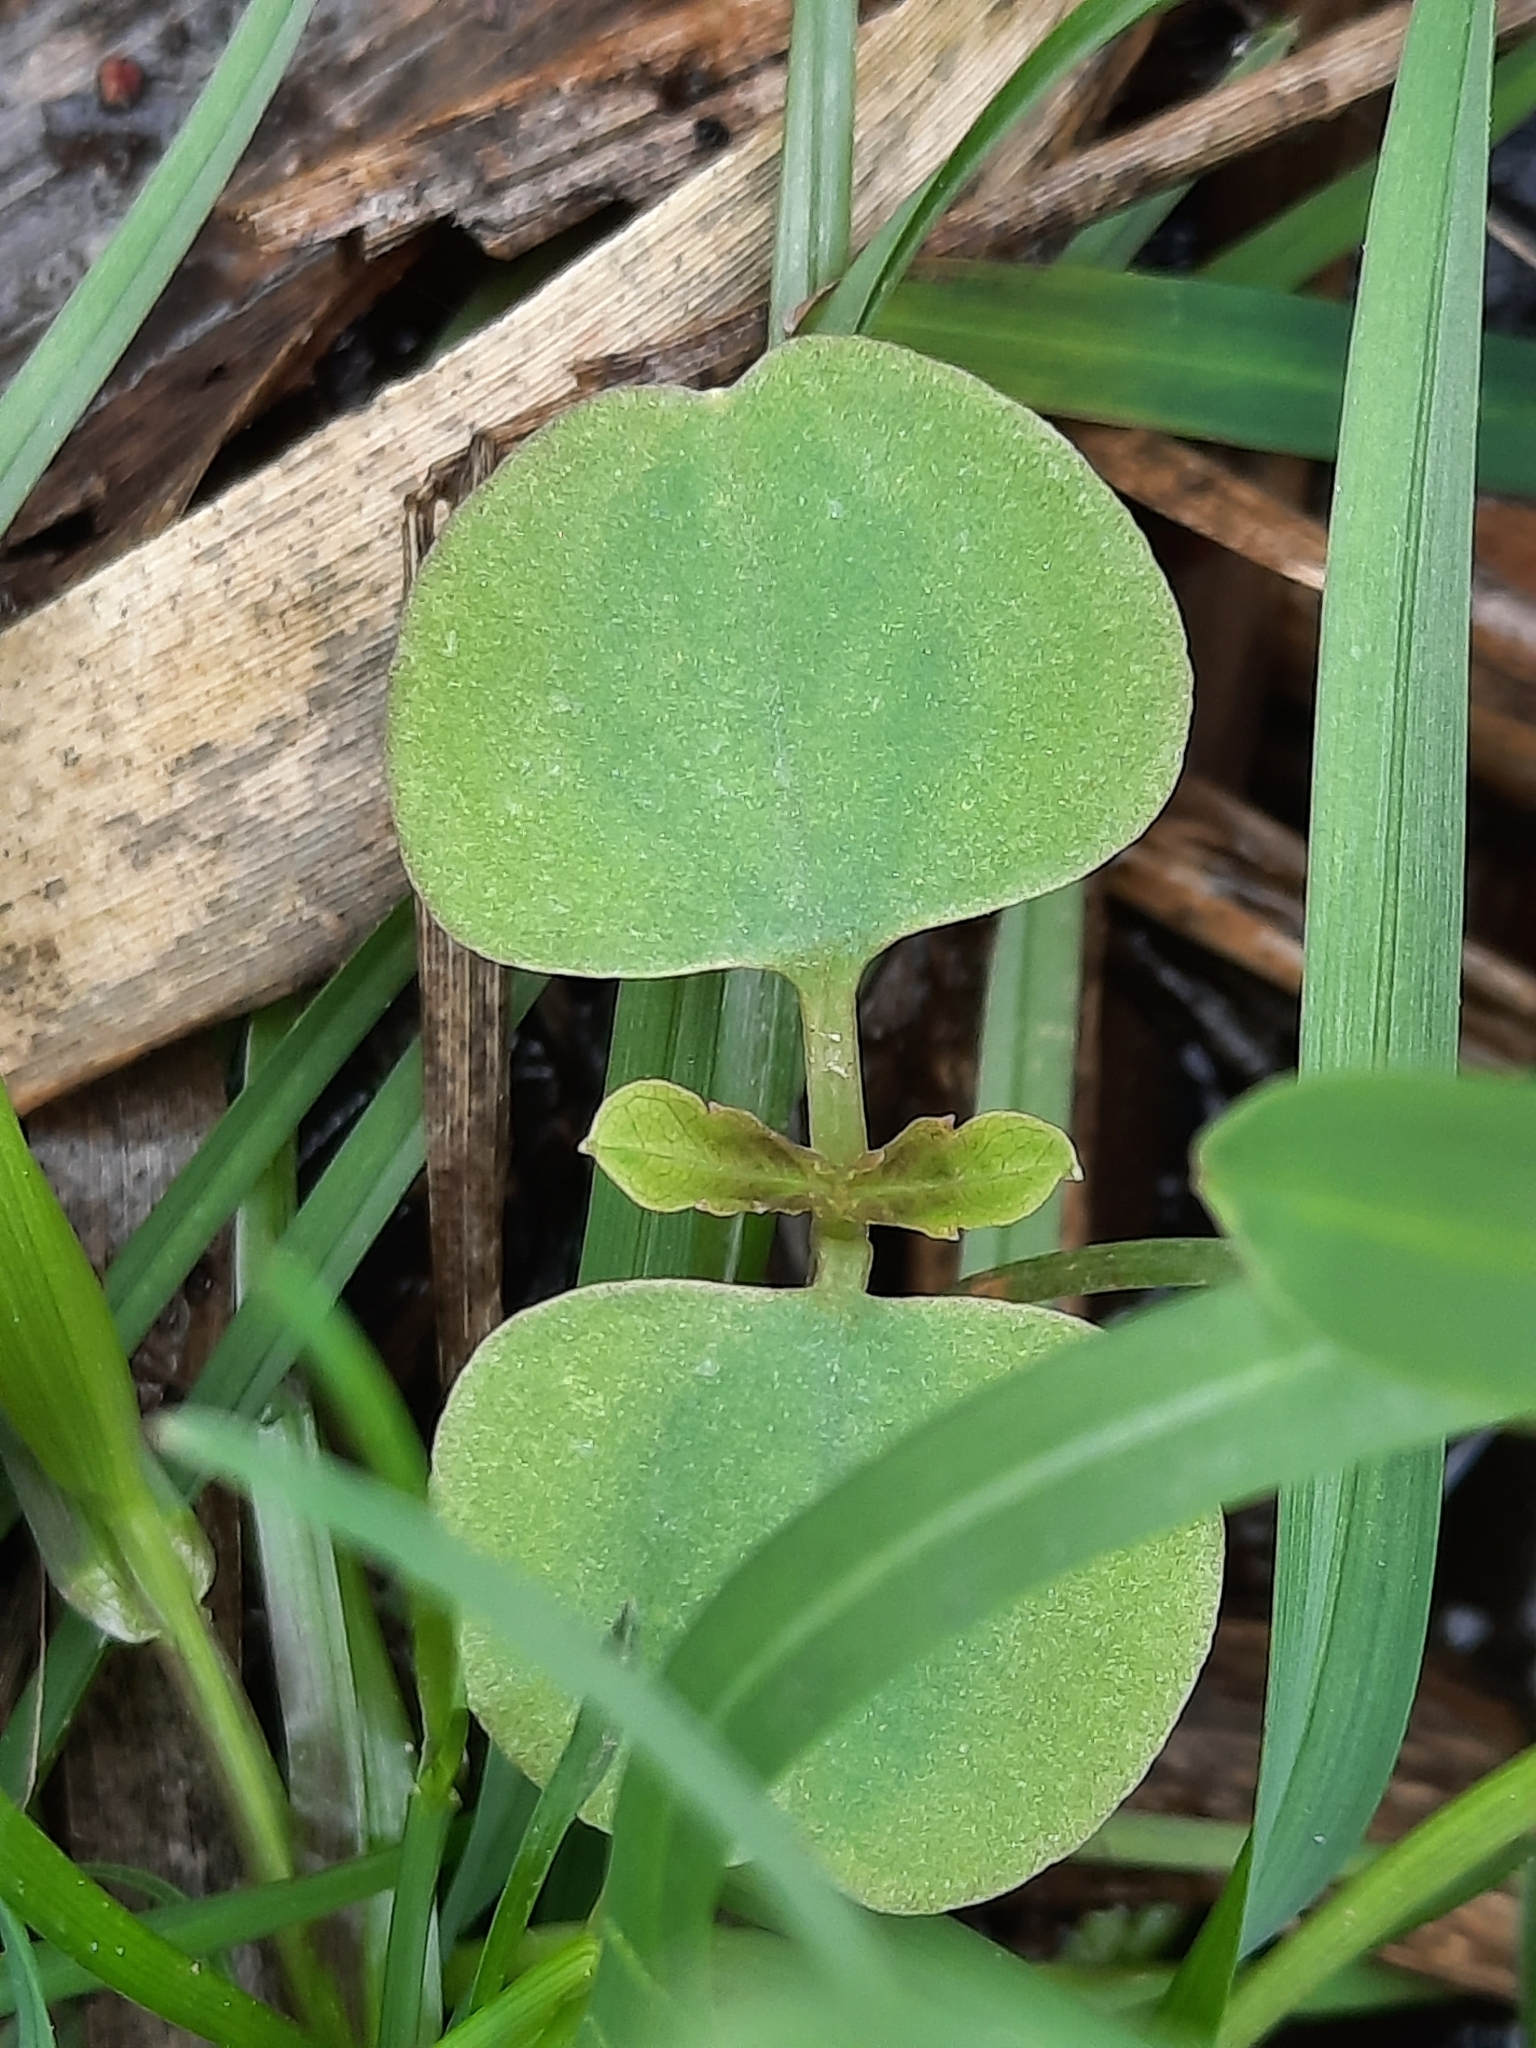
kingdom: Plantae
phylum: Tracheophyta
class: Magnoliopsida
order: Ericales
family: Balsaminaceae
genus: Impatiens
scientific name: Impatiens
